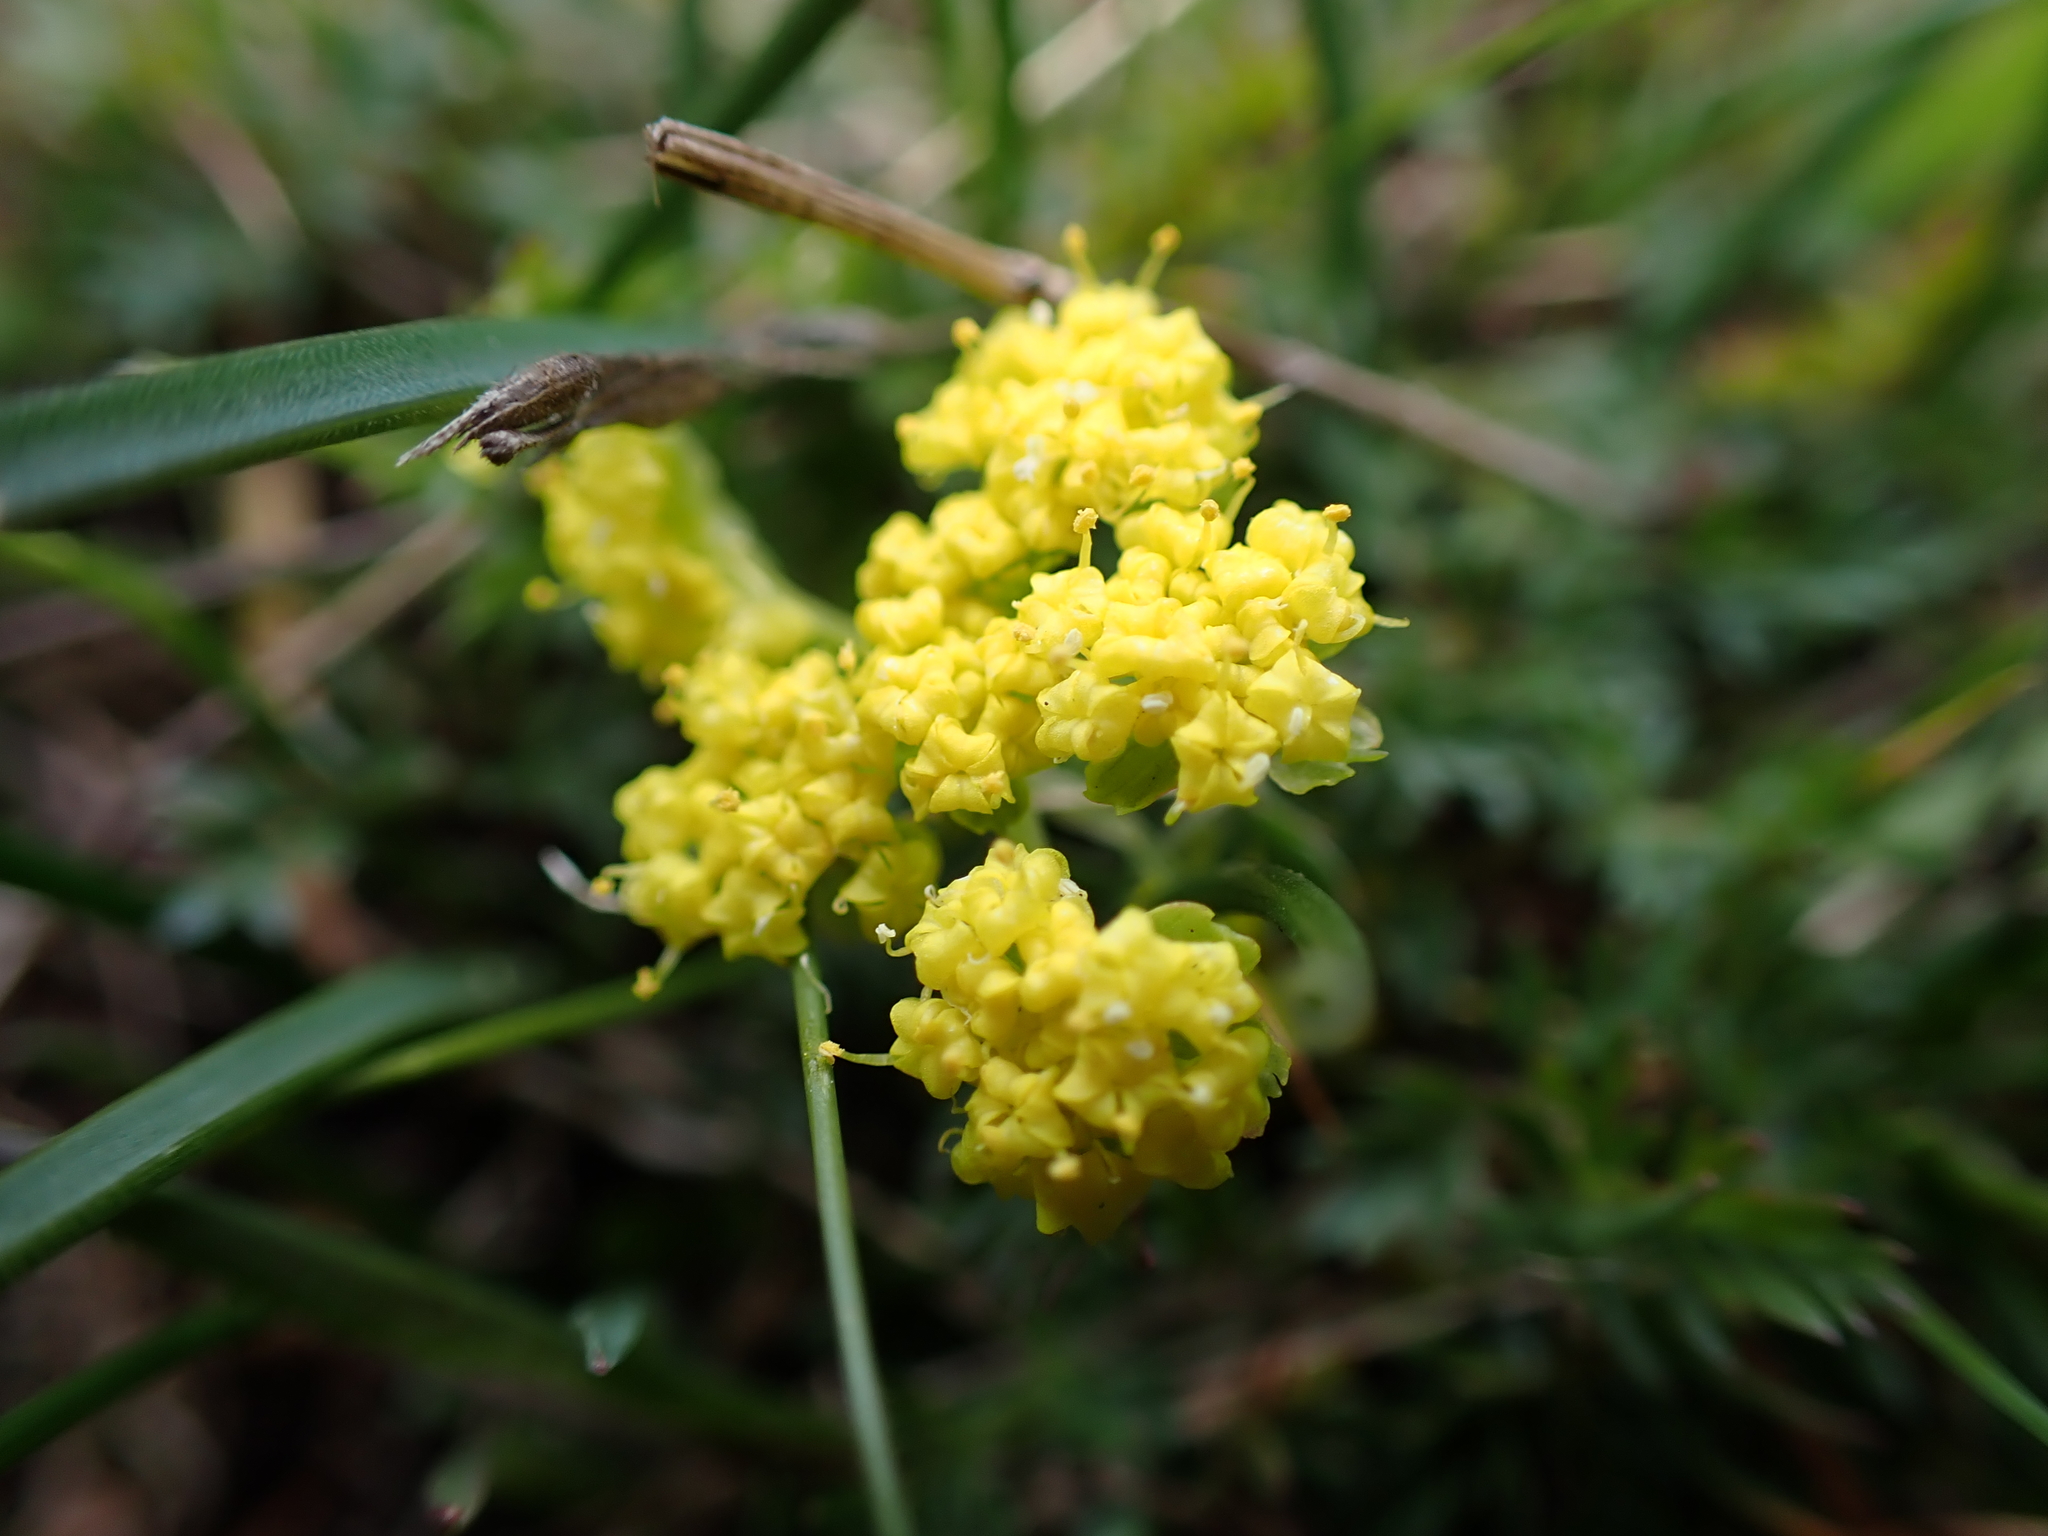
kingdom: Plantae
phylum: Tracheophyta
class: Magnoliopsida
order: Apiales
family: Apiaceae
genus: Lomatium
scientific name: Lomatium utriculatum
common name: Fine-leaf desert-parsley
